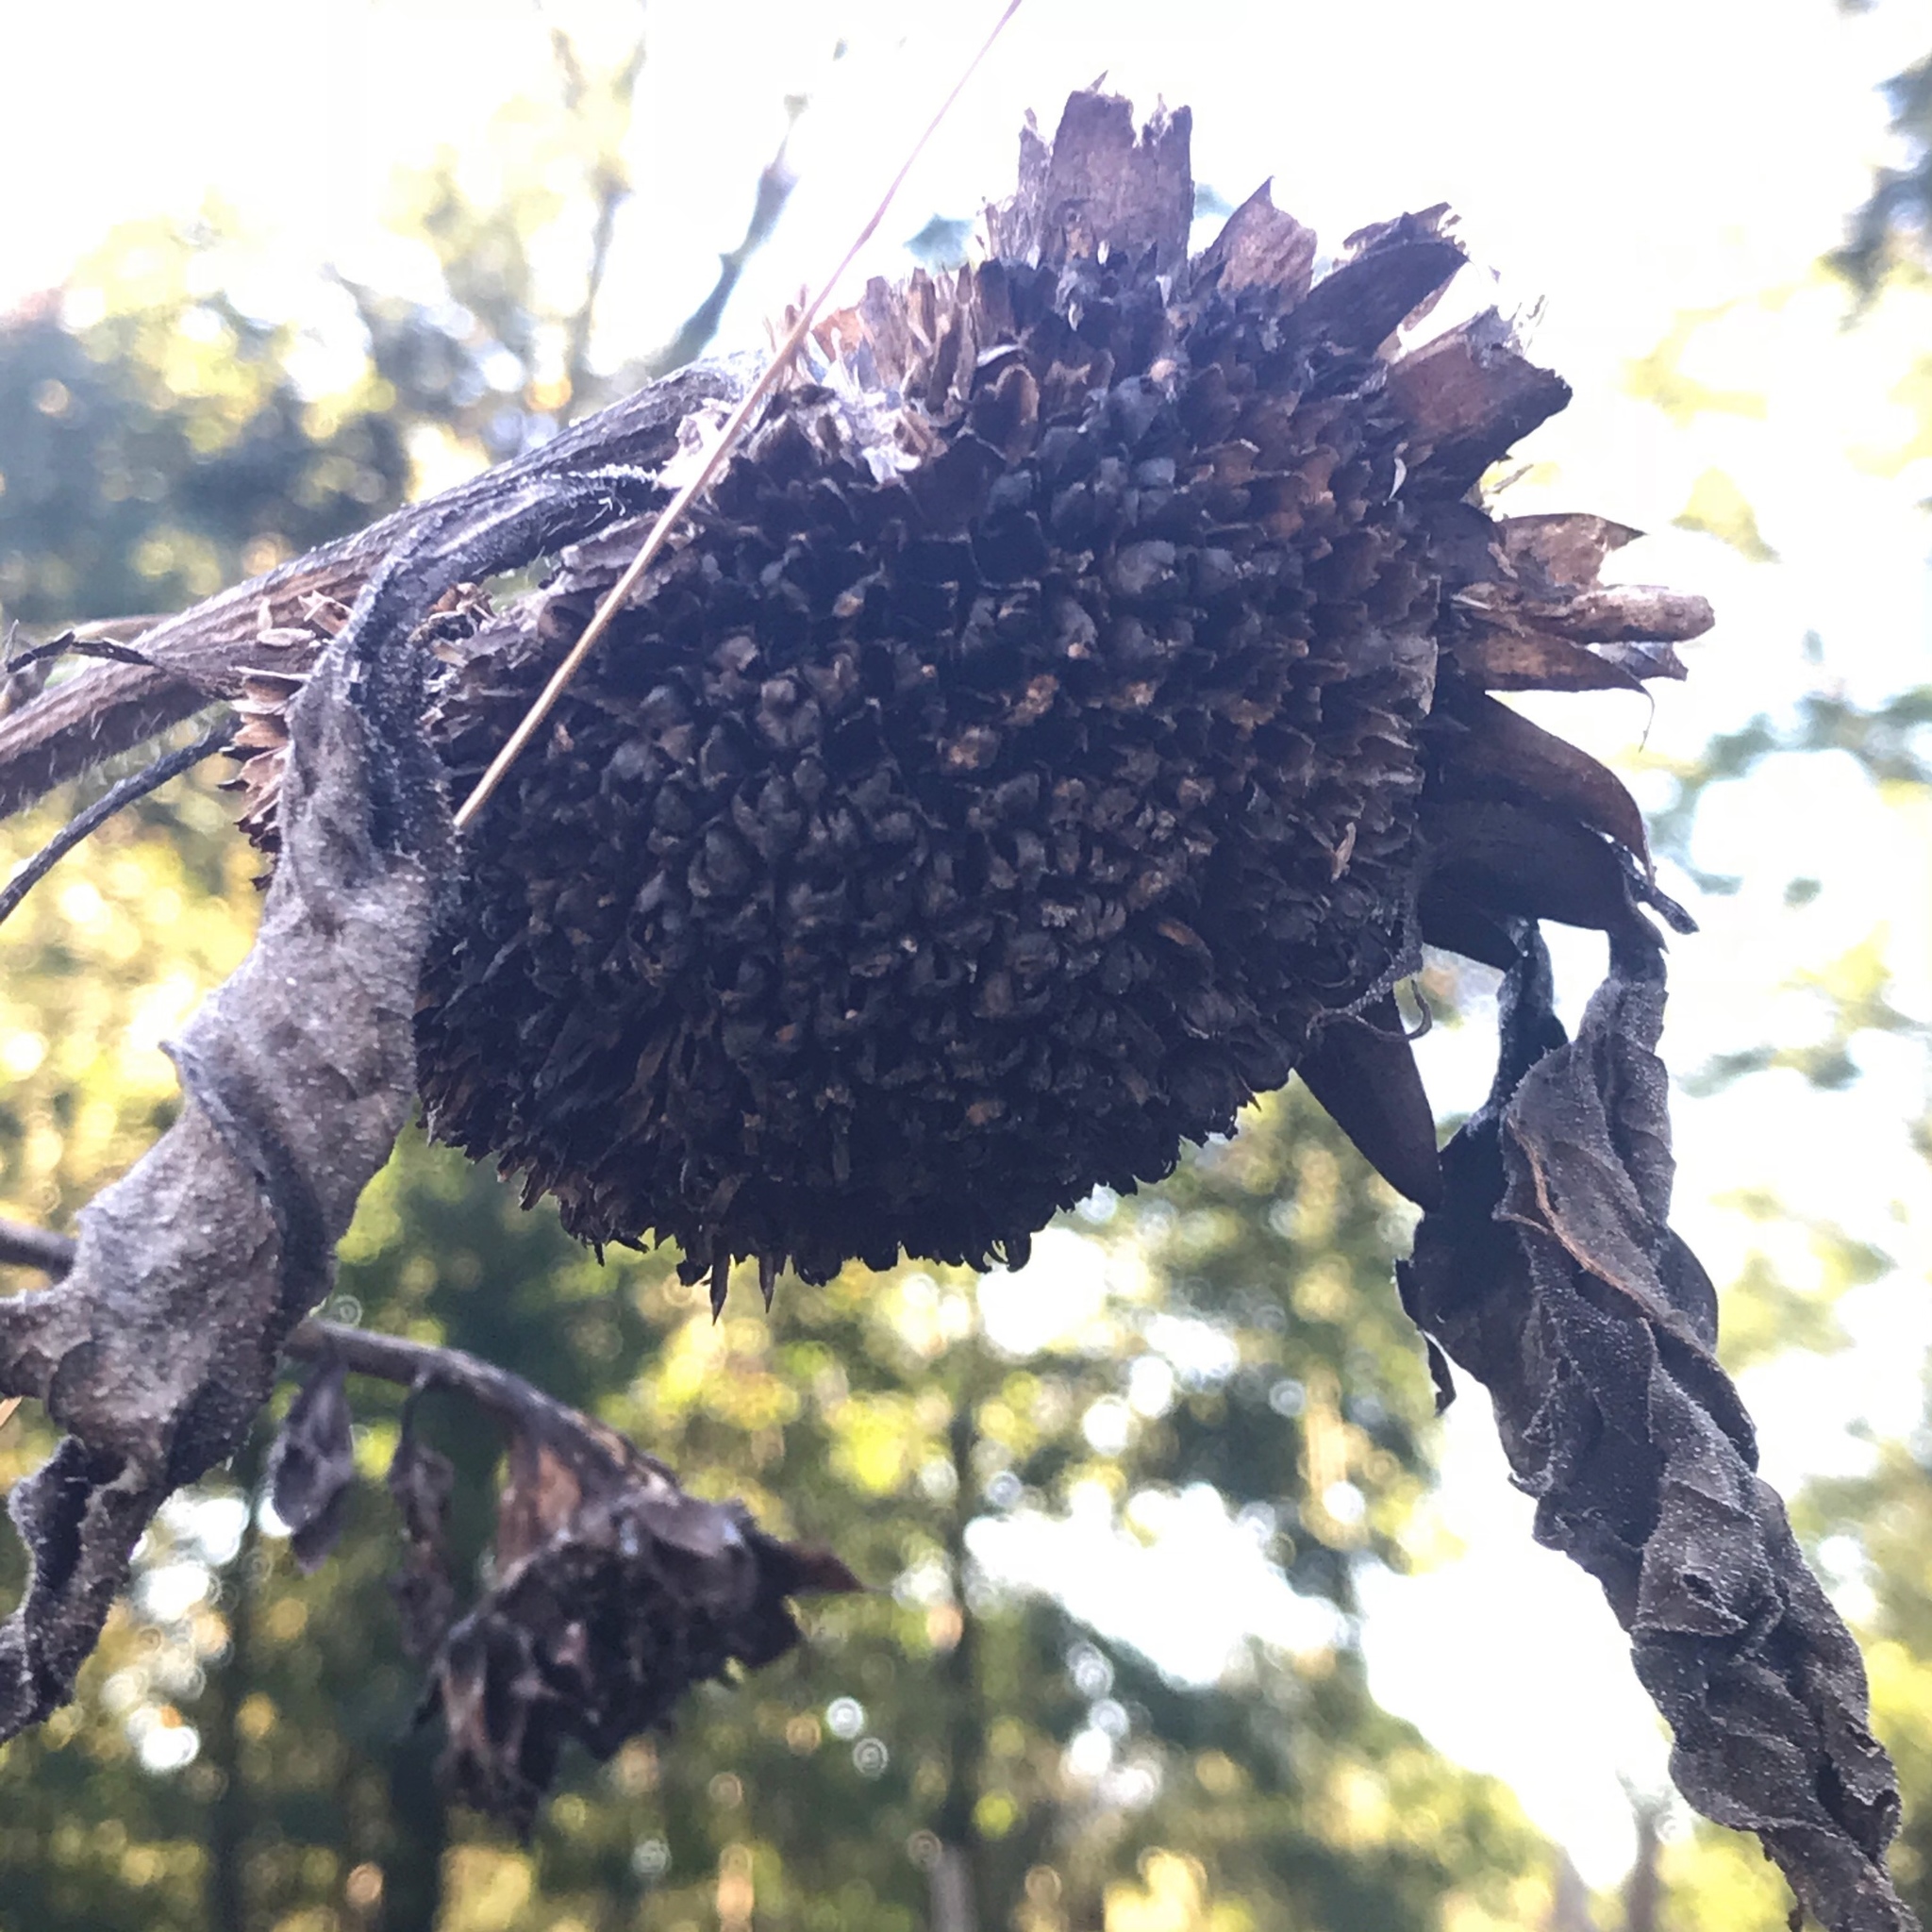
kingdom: Plantae
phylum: Tracheophyta
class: Magnoliopsida
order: Asterales
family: Asteraceae
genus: Helianthus
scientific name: Helianthus annuus
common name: Sunflower
